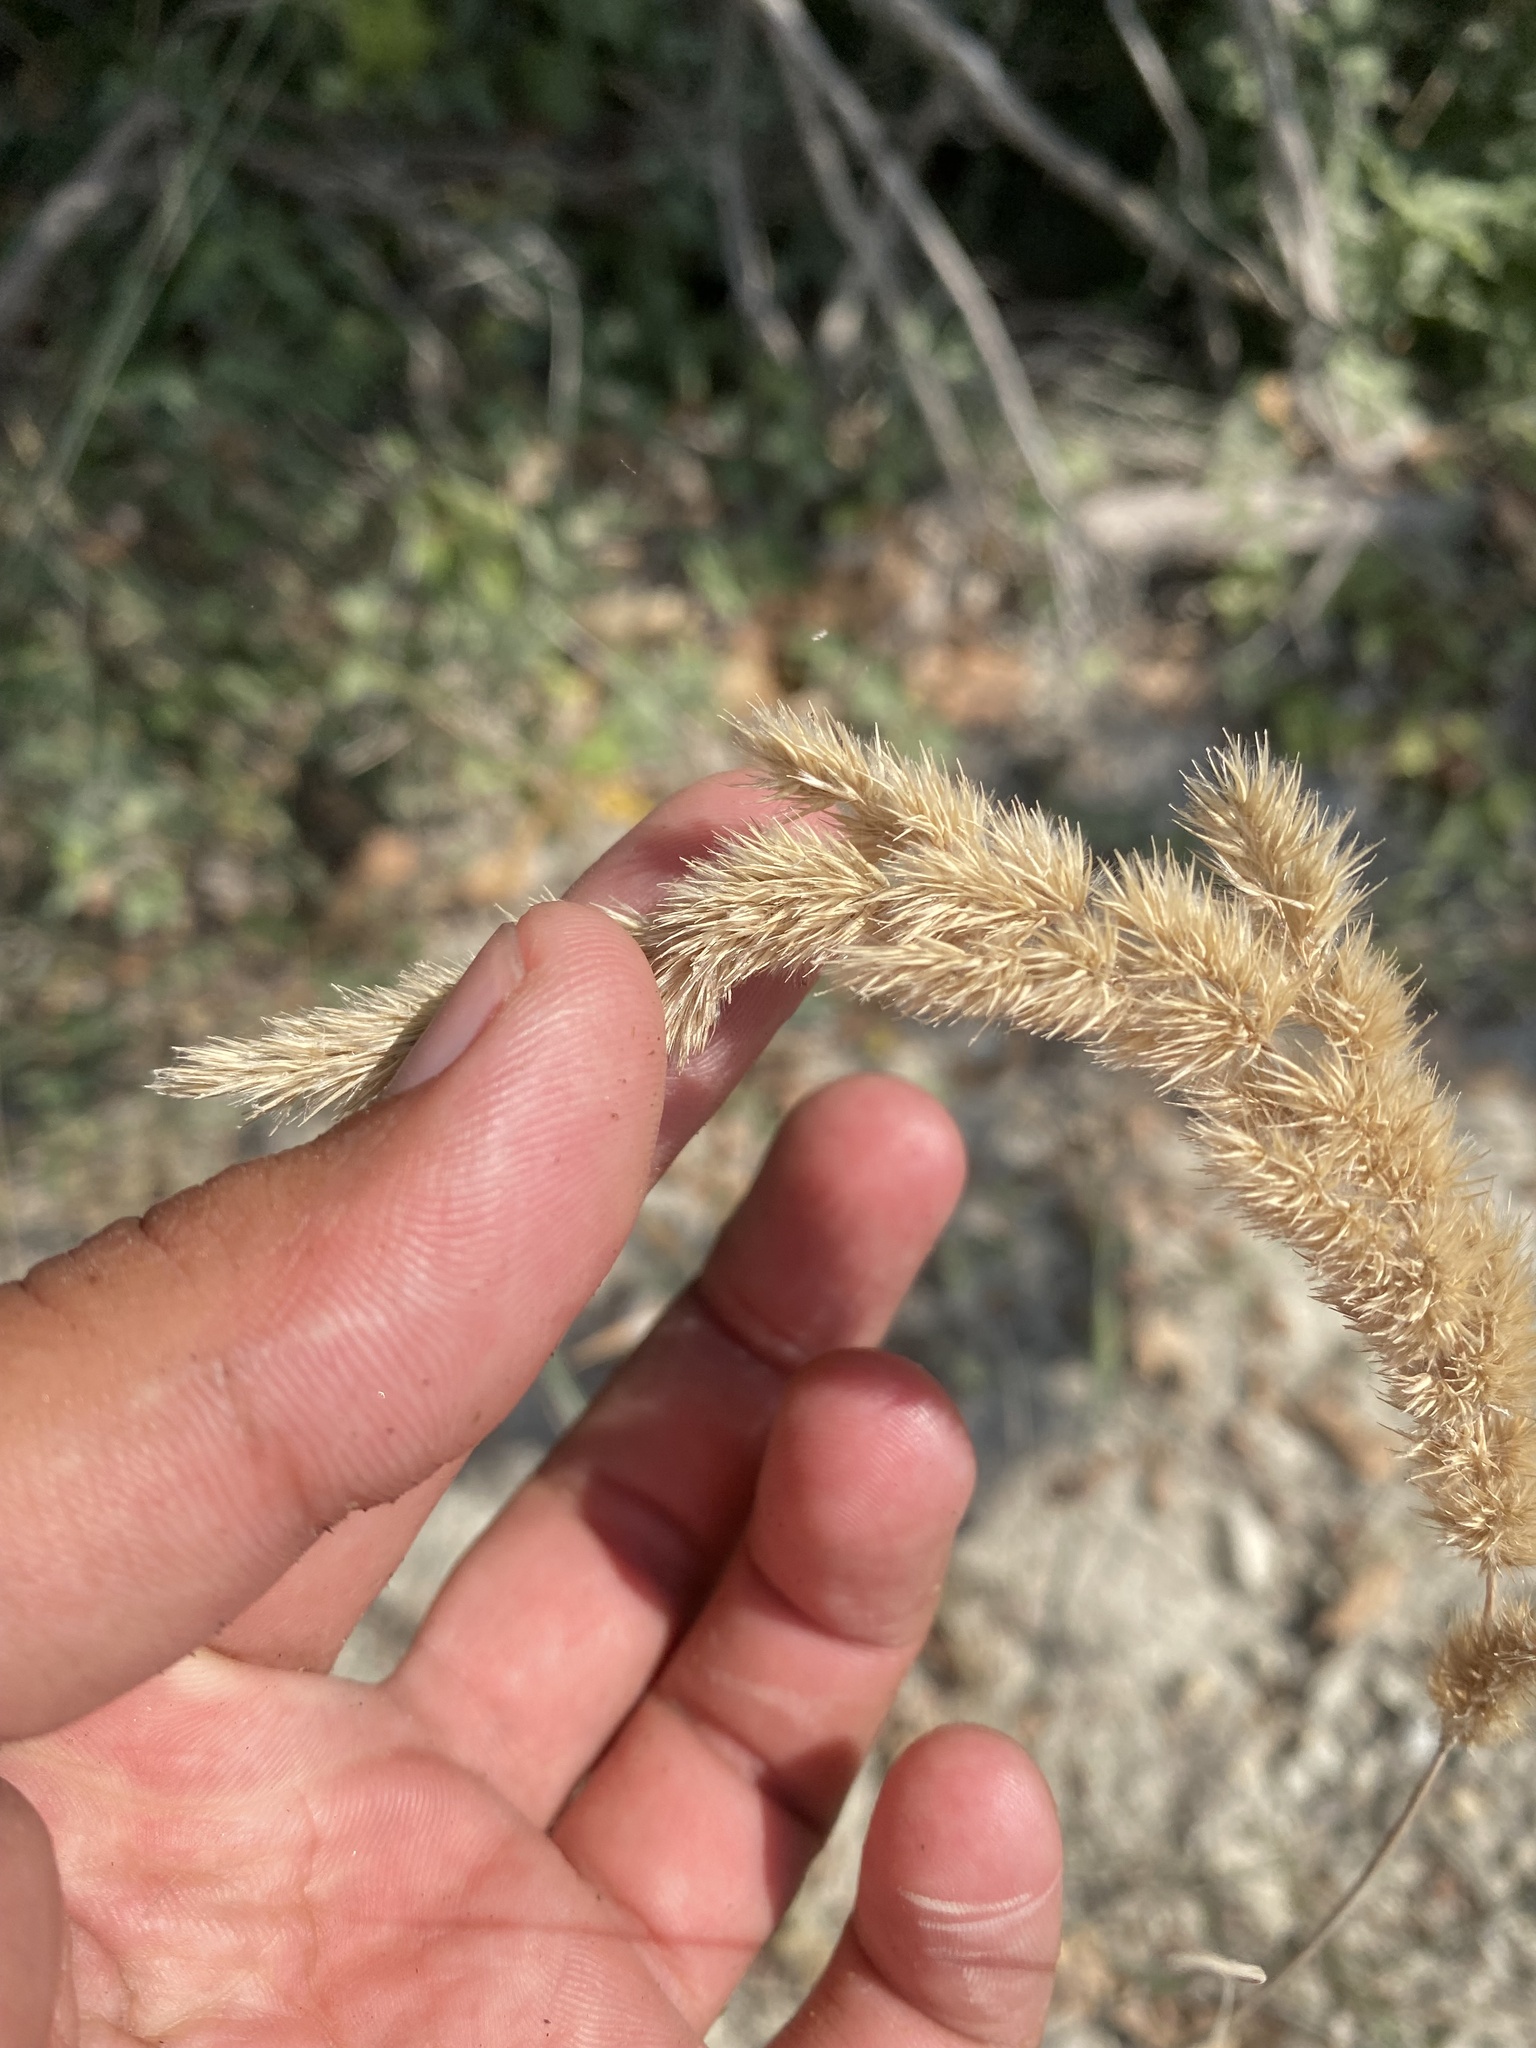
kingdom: Plantae
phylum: Tracheophyta
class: Liliopsida
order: Poales
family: Poaceae
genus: Calamagrostis
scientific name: Calamagrostis epigejos
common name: Wood small-reed
